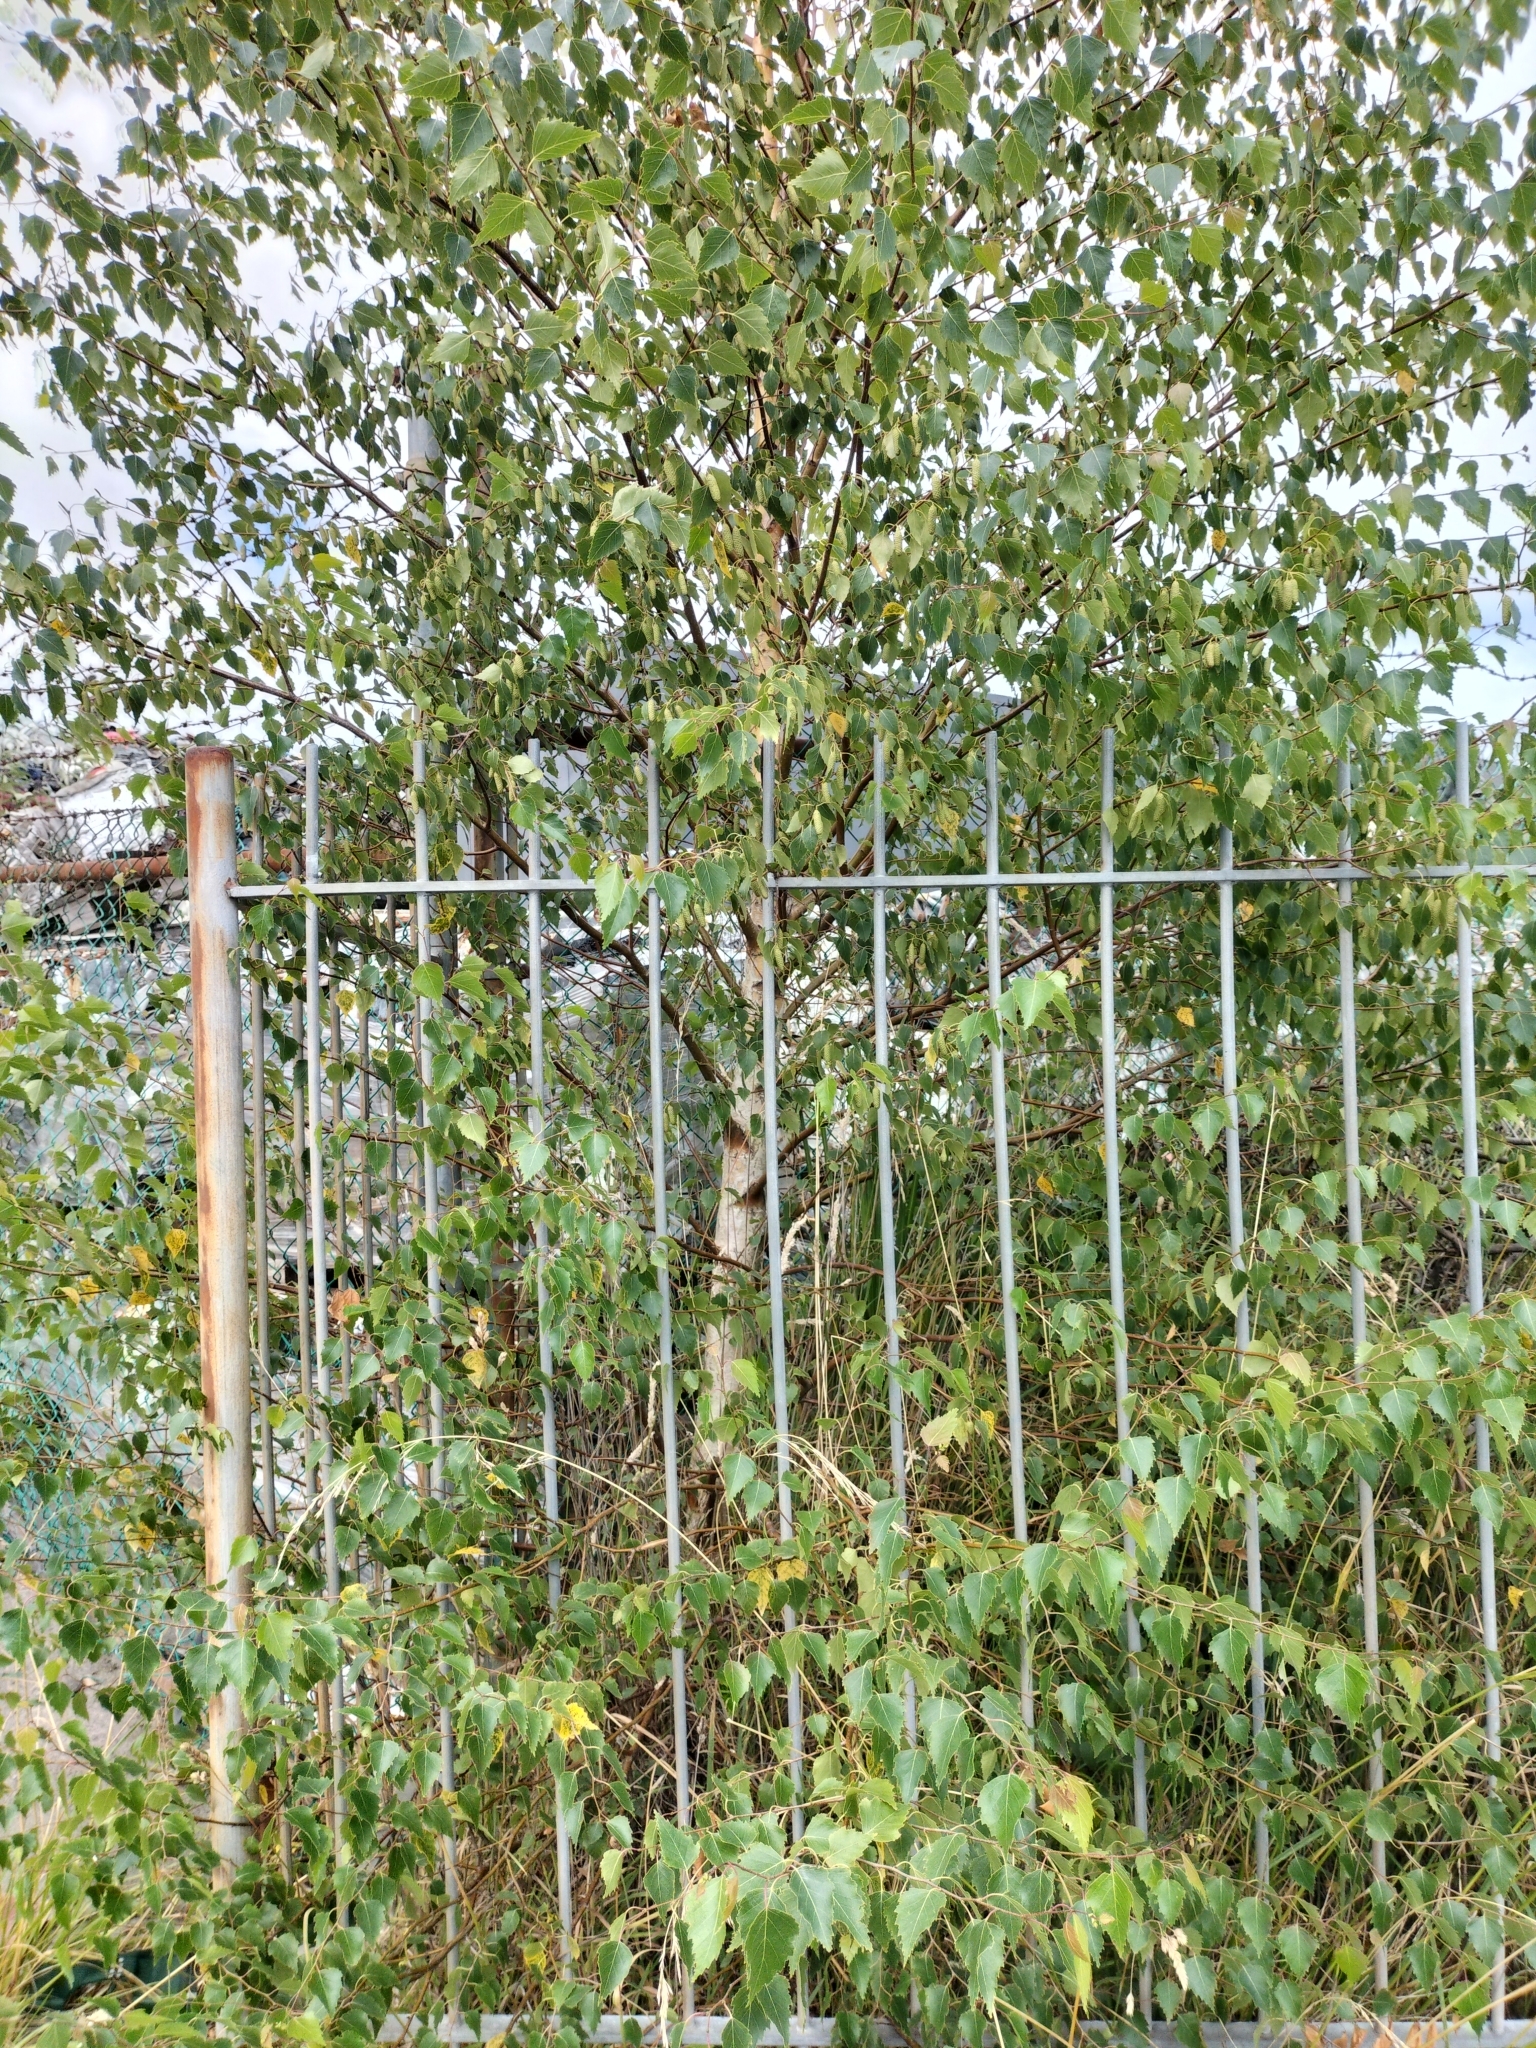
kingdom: Plantae
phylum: Tracheophyta
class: Magnoliopsida
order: Fagales
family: Betulaceae
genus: Betula
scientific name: Betula pendula
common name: Silver birch
